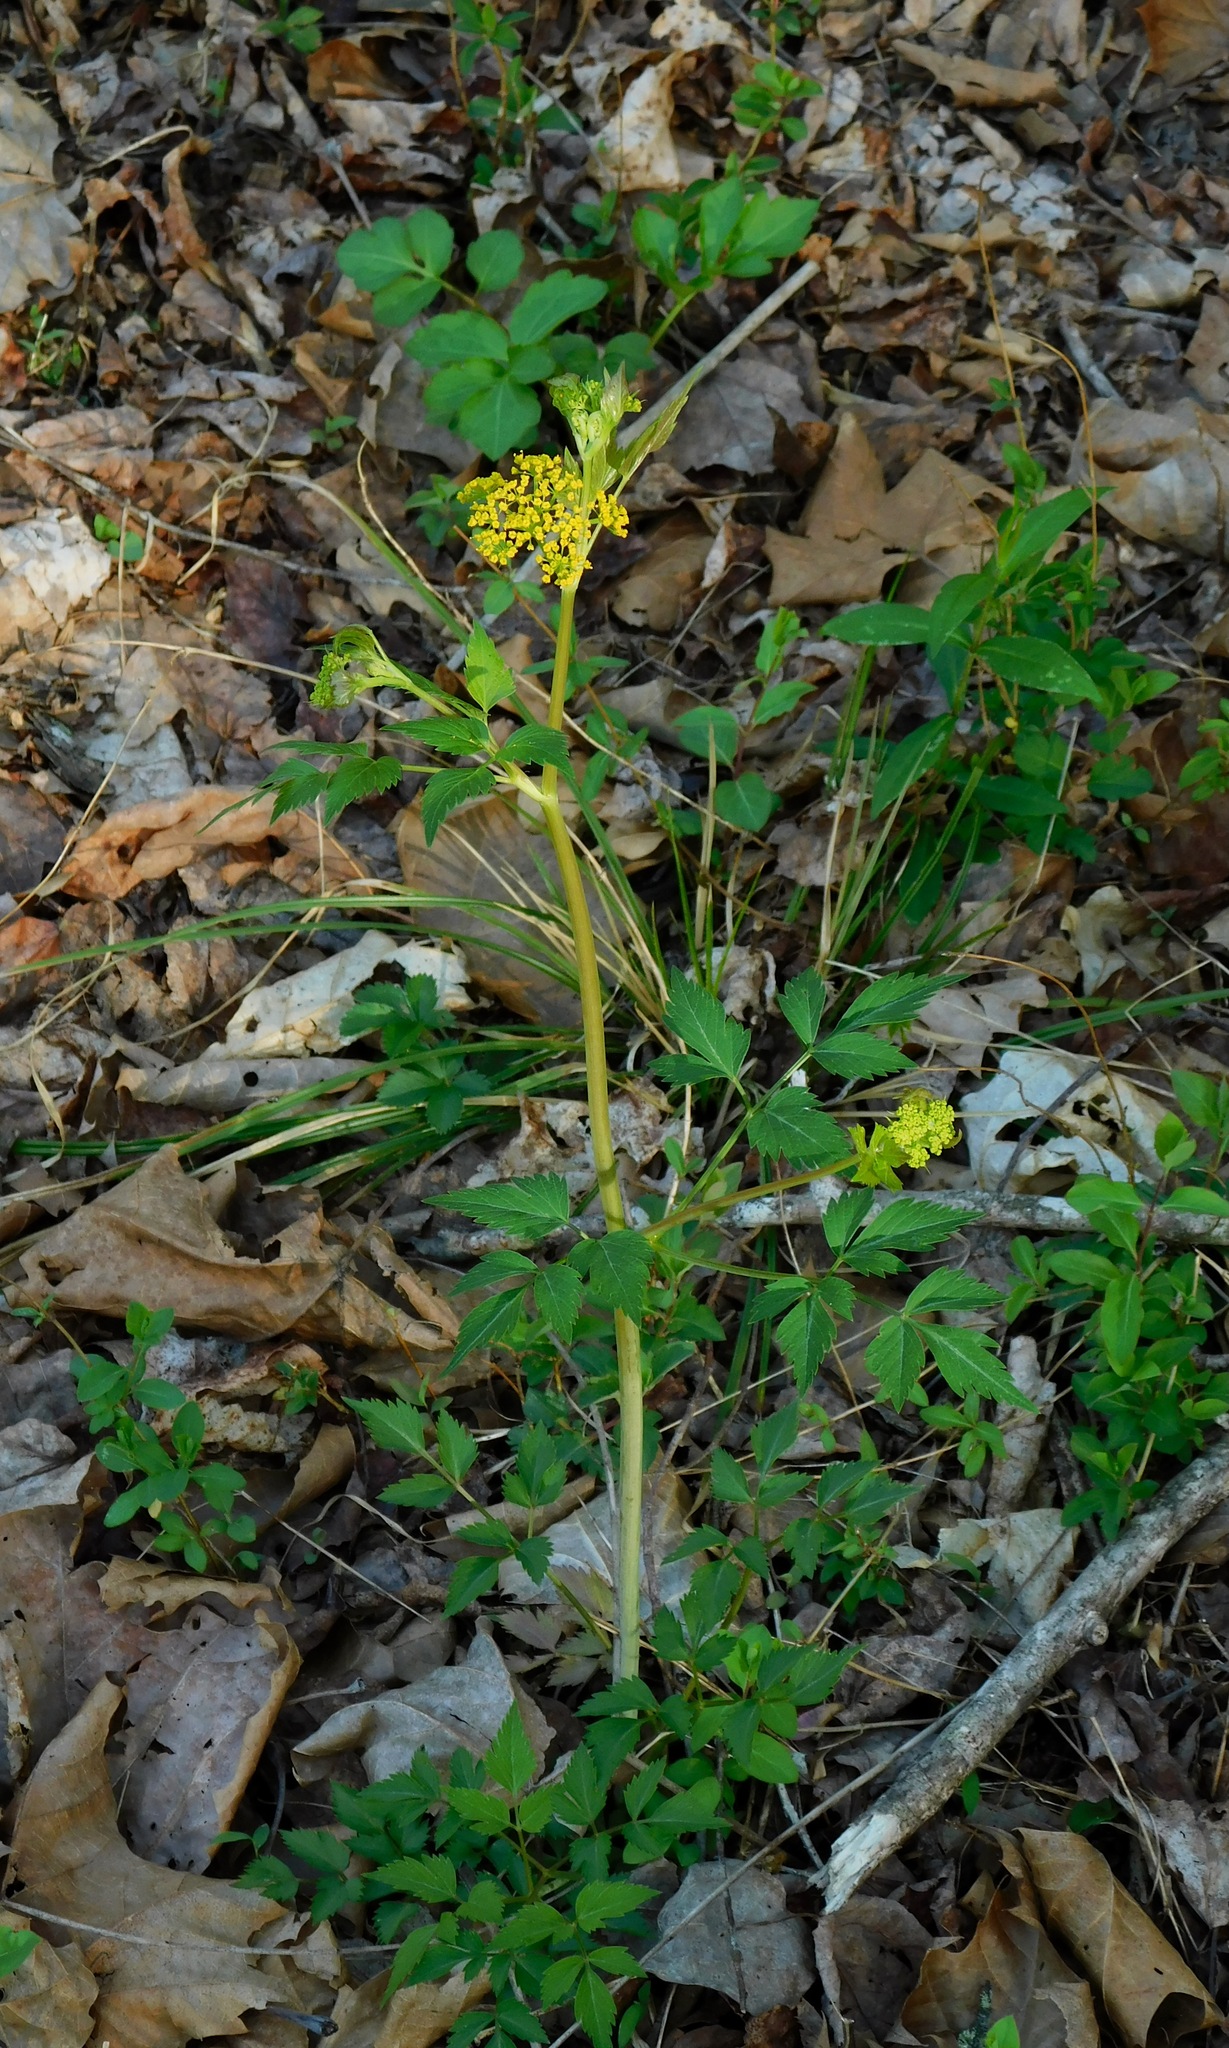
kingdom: Plantae
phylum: Tracheophyta
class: Magnoliopsida
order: Apiales
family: Apiaceae
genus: Thaspium
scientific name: Thaspium barbinode
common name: Bearded meadow-parsnip
